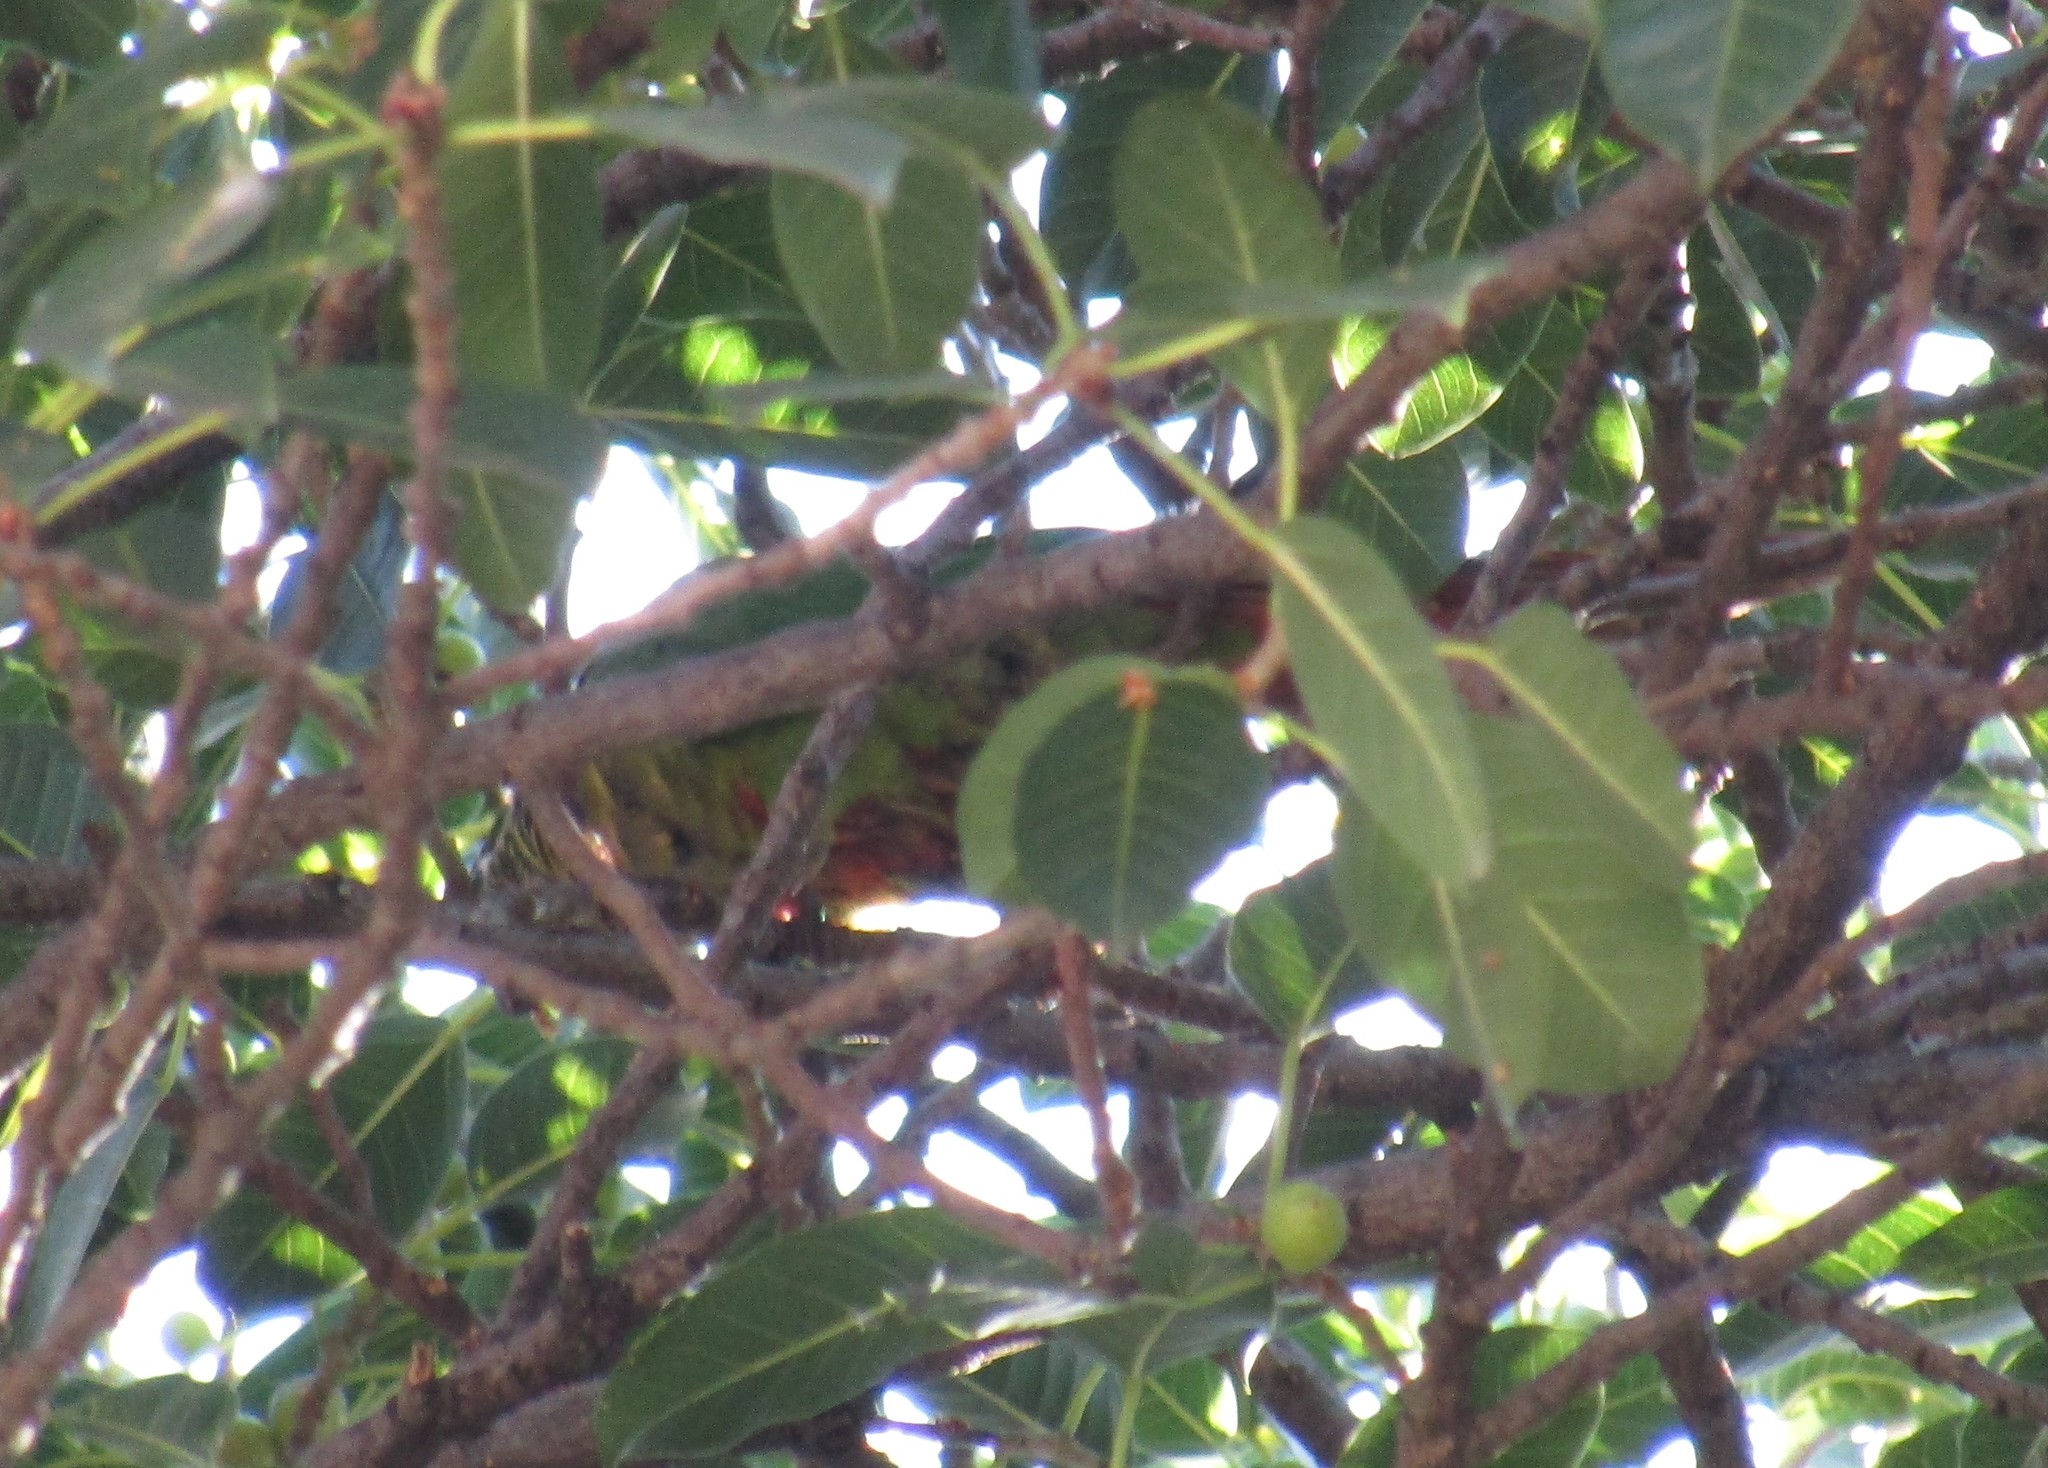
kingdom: Animalia
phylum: Chordata
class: Aves
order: Psittaciformes
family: Psittacidae
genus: Pyrrhura
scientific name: Pyrrhura frontalis
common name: Maroon-bellied parakeet
